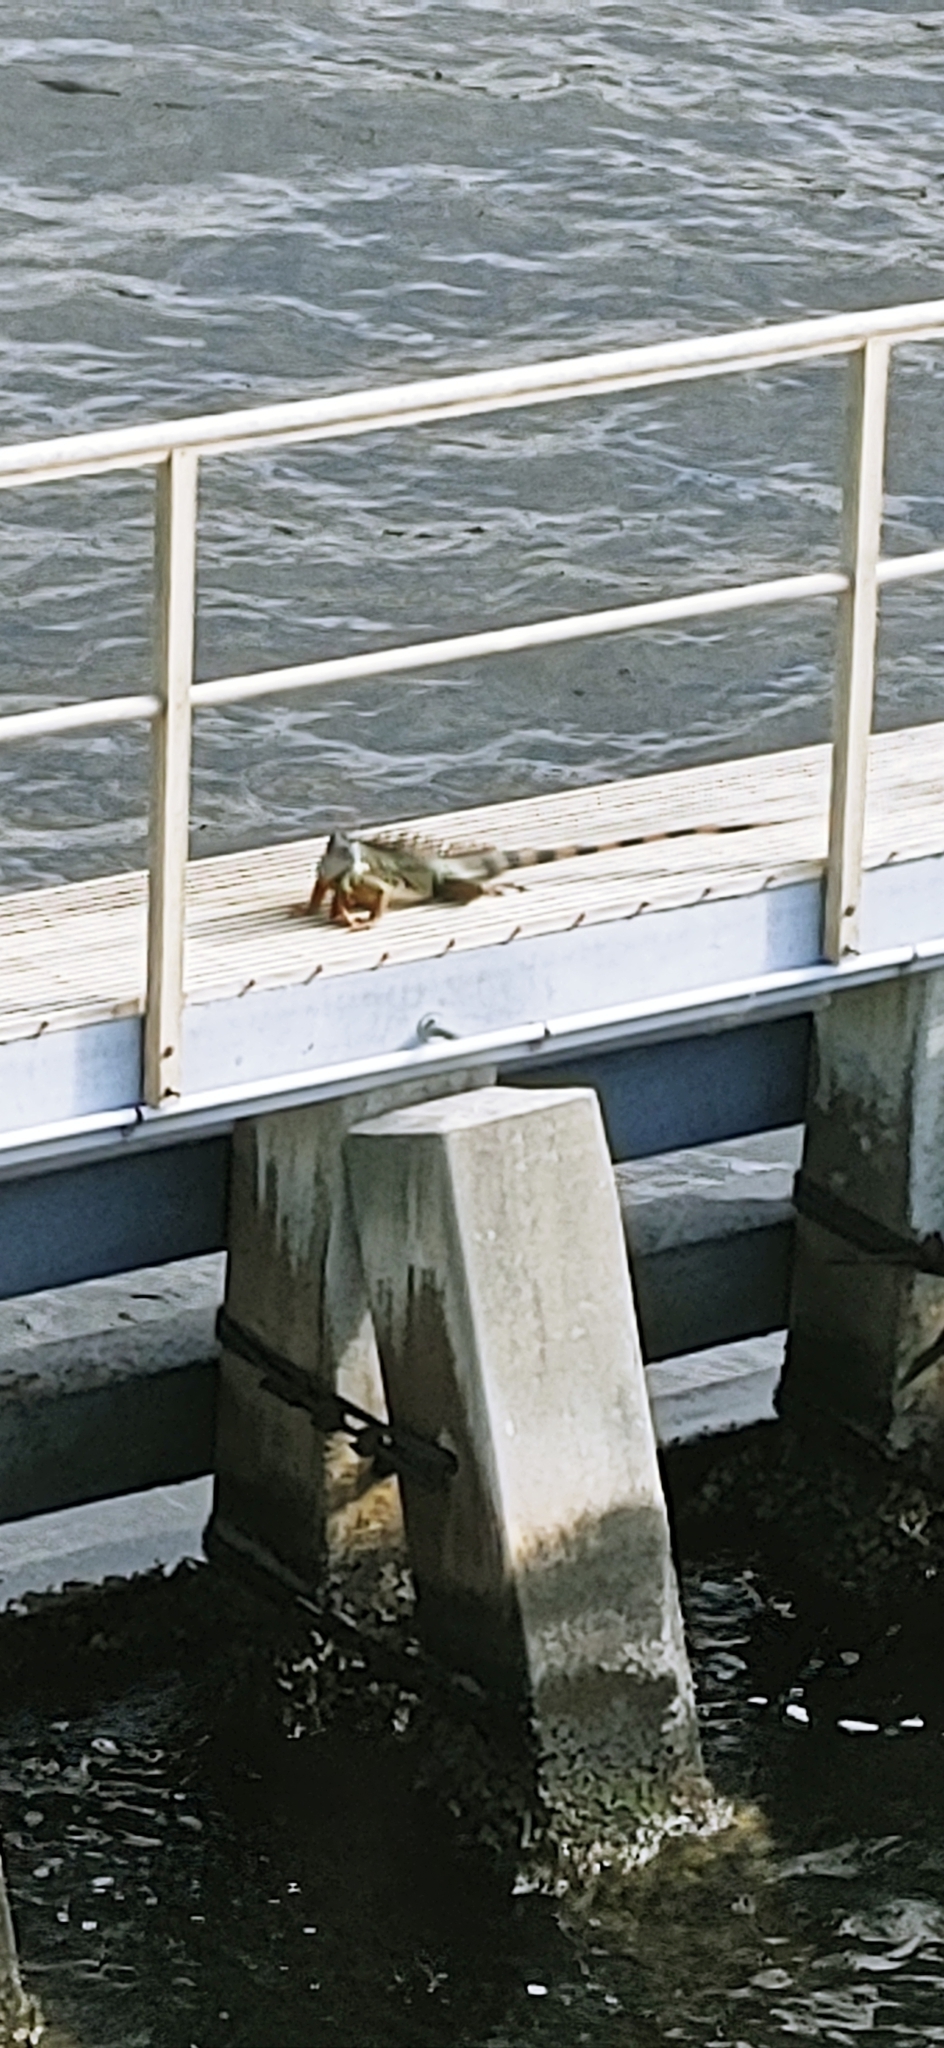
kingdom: Animalia
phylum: Chordata
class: Squamata
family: Iguanidae
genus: Iguana
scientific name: Iguana iguana
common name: Green iguana
